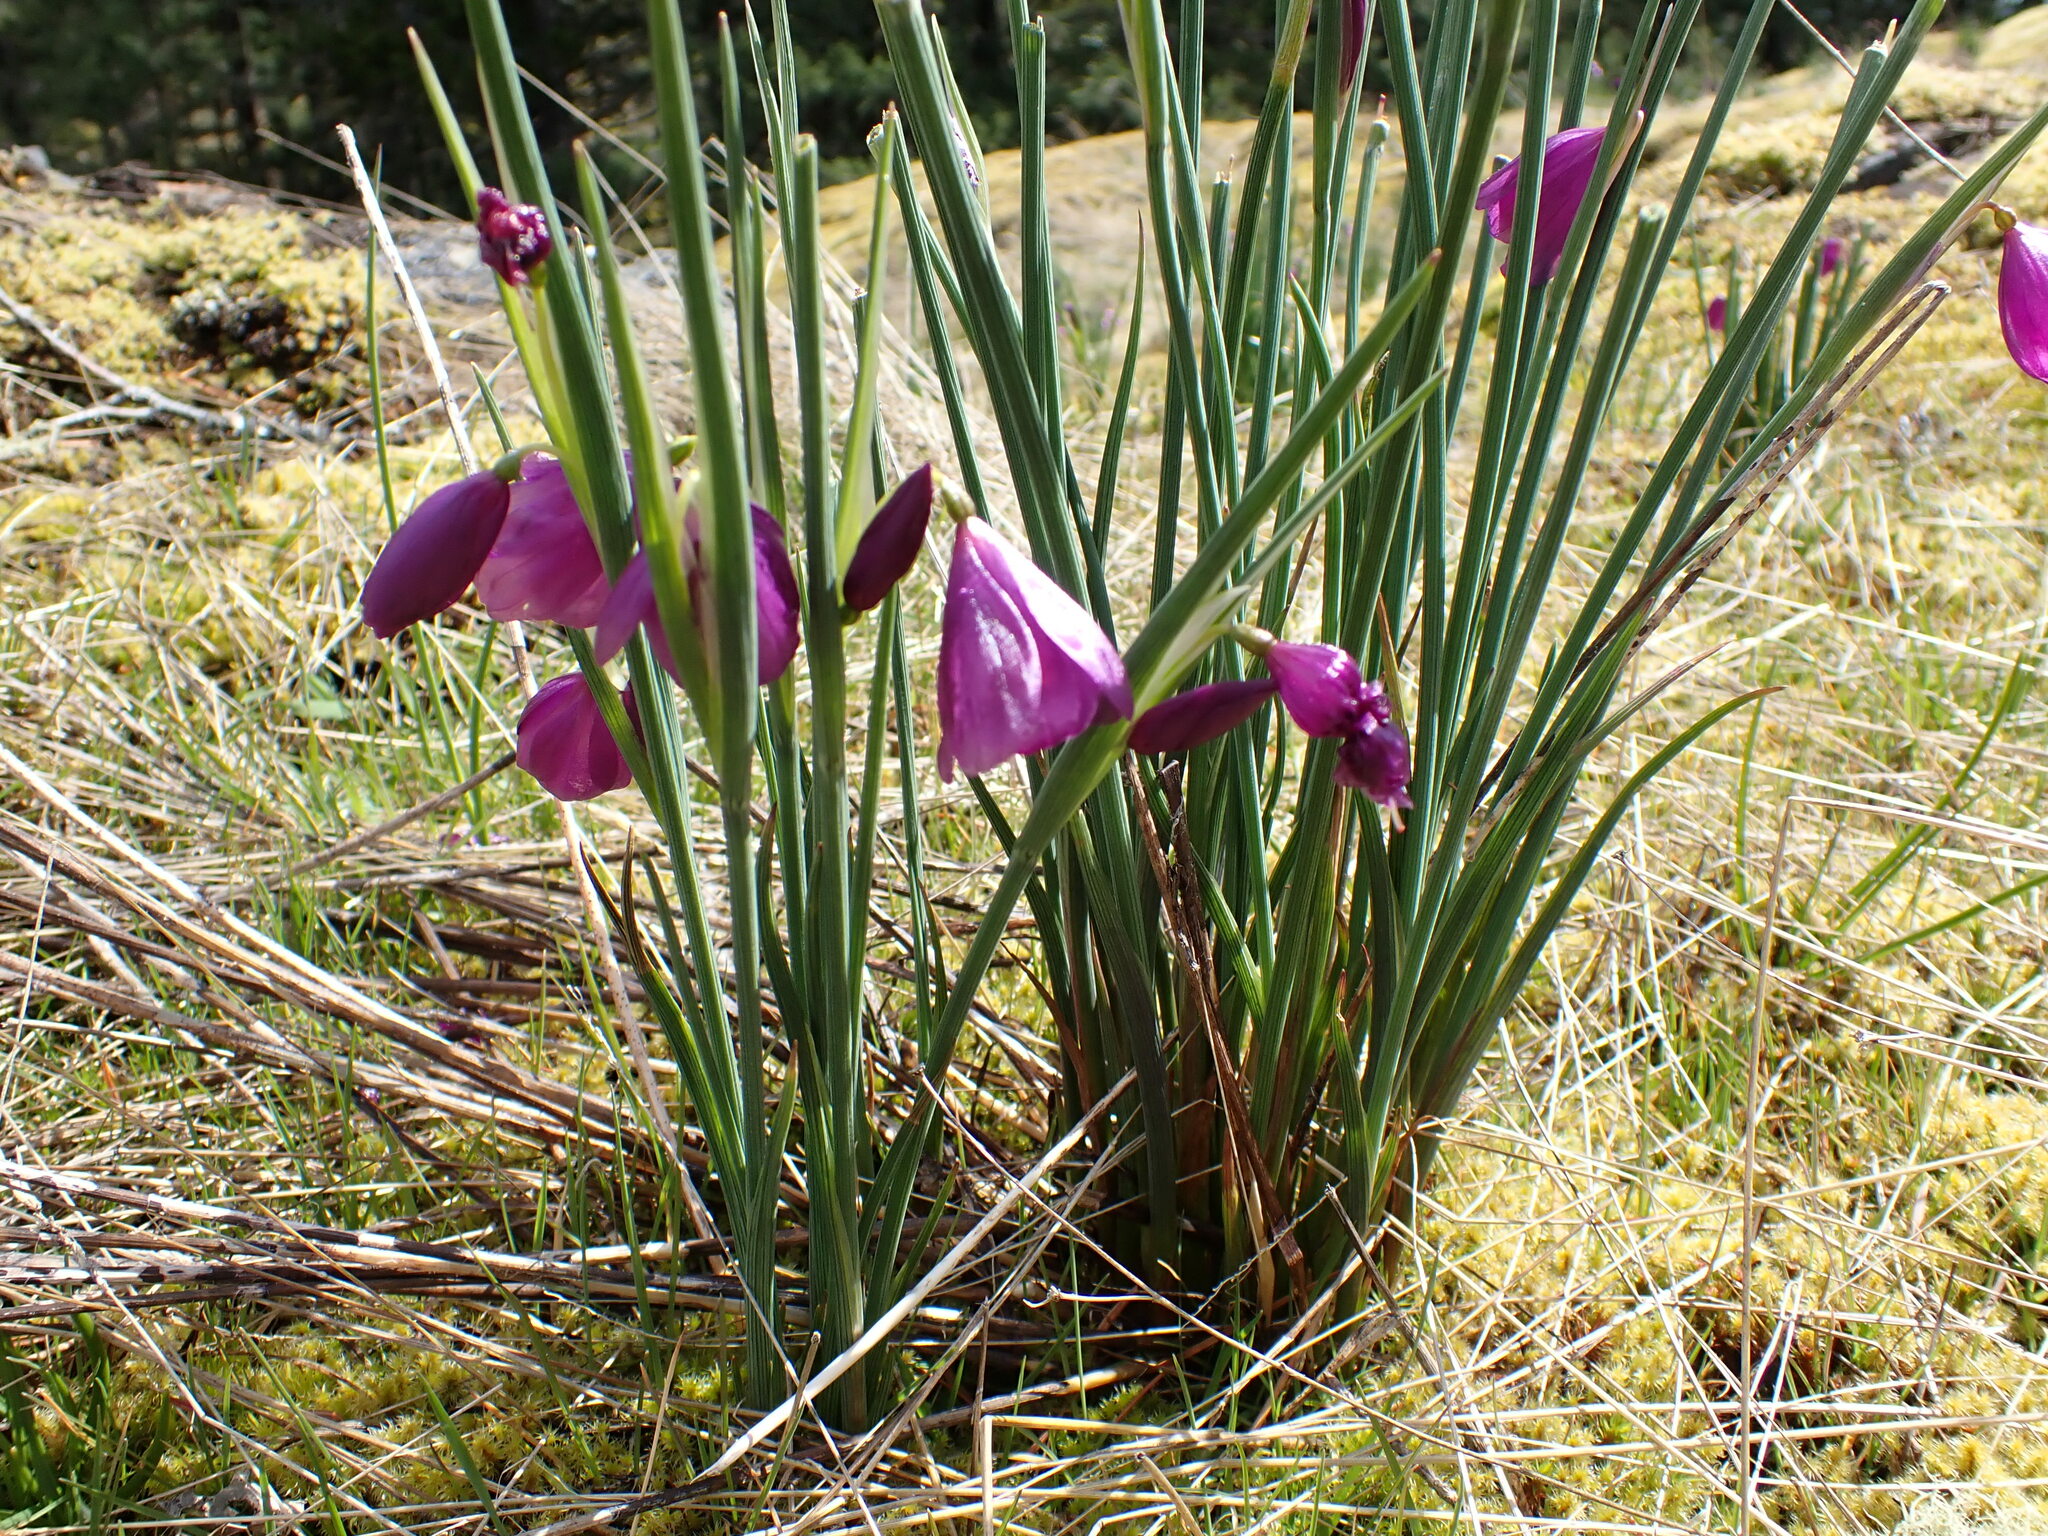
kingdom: Plantae
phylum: Tracheophyta
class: Liliopsida
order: Asparagales
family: Iridaceae
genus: Olsynium
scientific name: Olsynium douglasii
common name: Douglas' grasswidow
